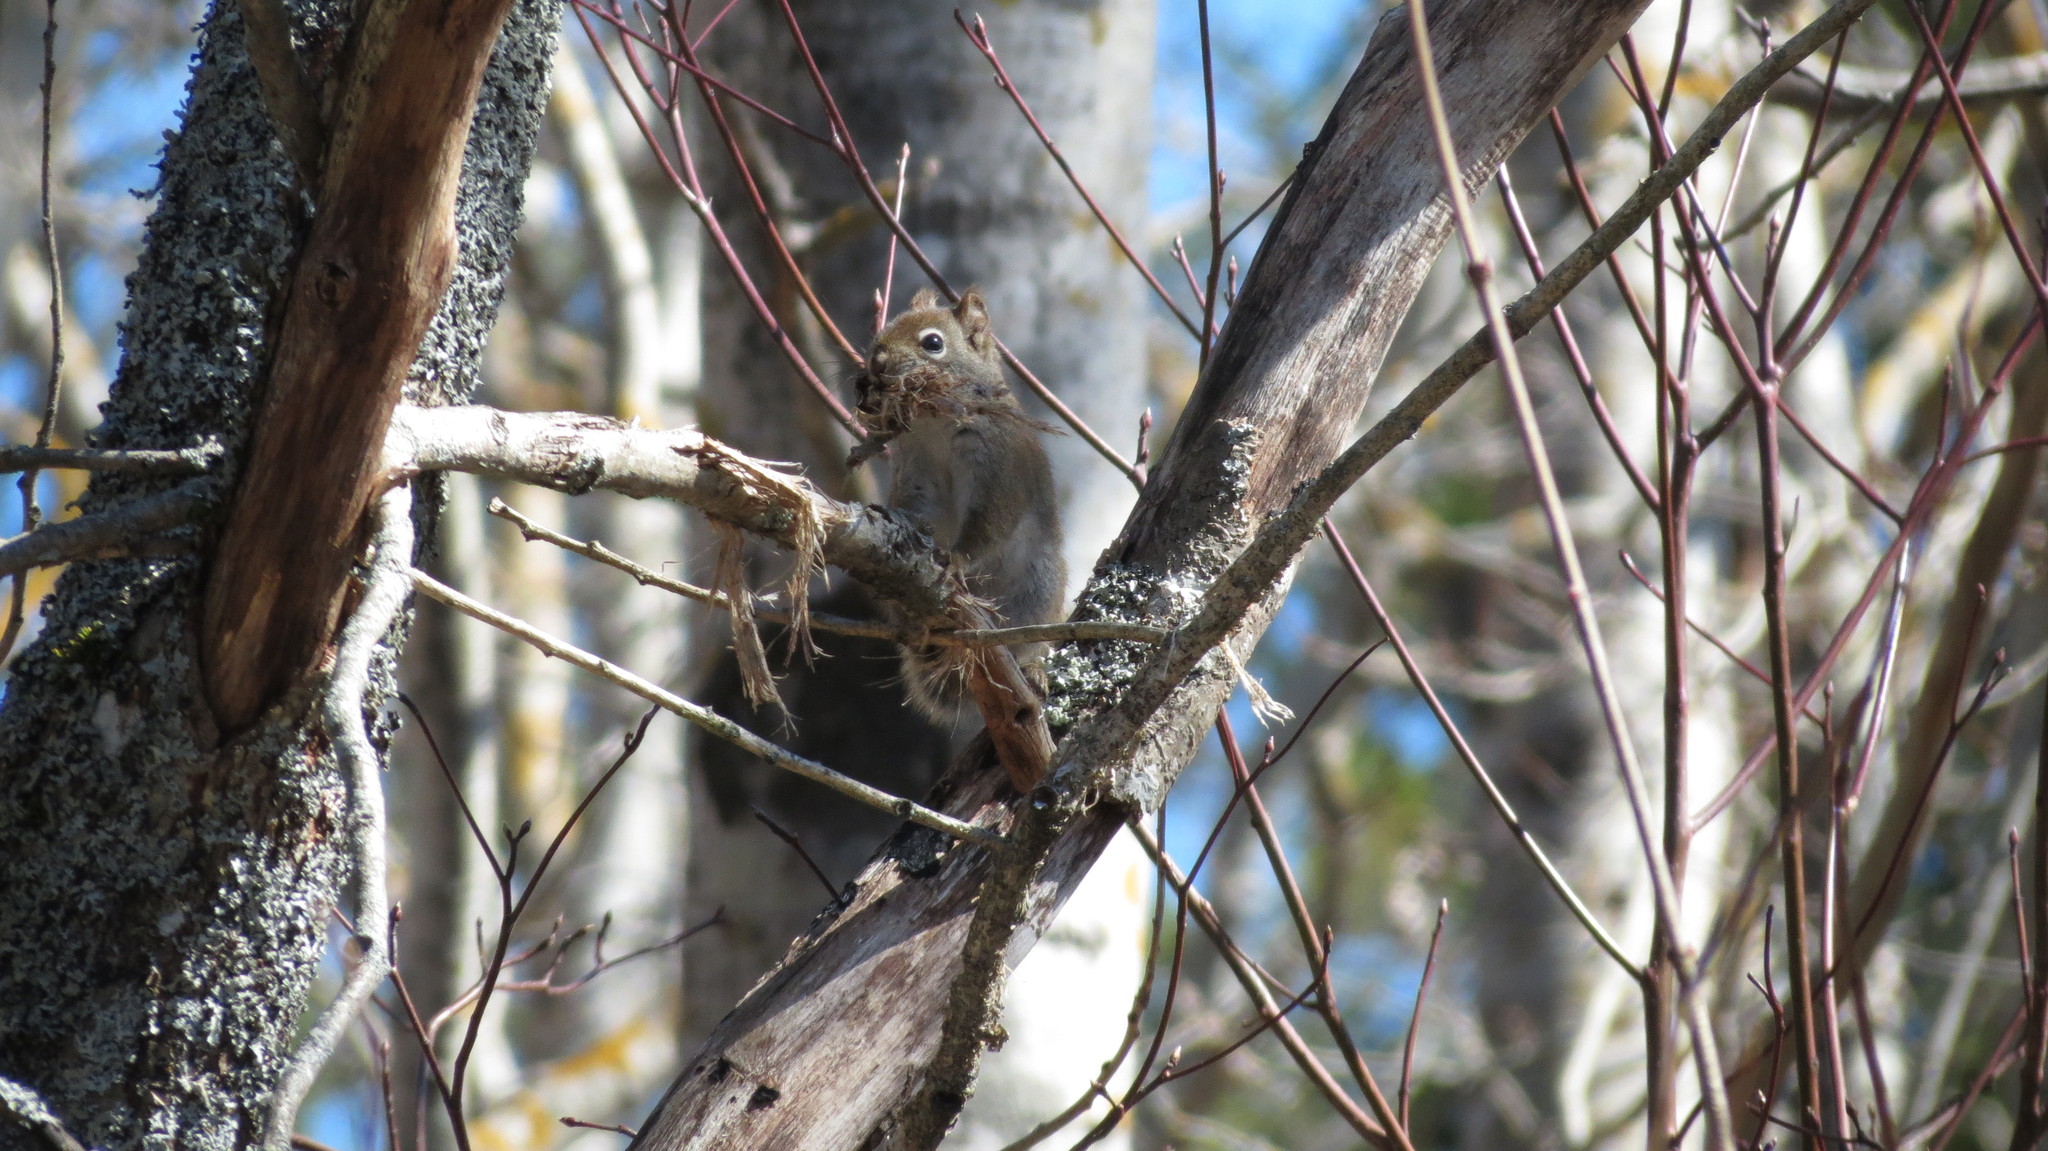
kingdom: Animalia
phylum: Chordata
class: Mammalia
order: Rodentia
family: Sciuridae
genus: Tamiasciurus
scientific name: Tamiasciurus hudsonicus
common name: Red squirrel
